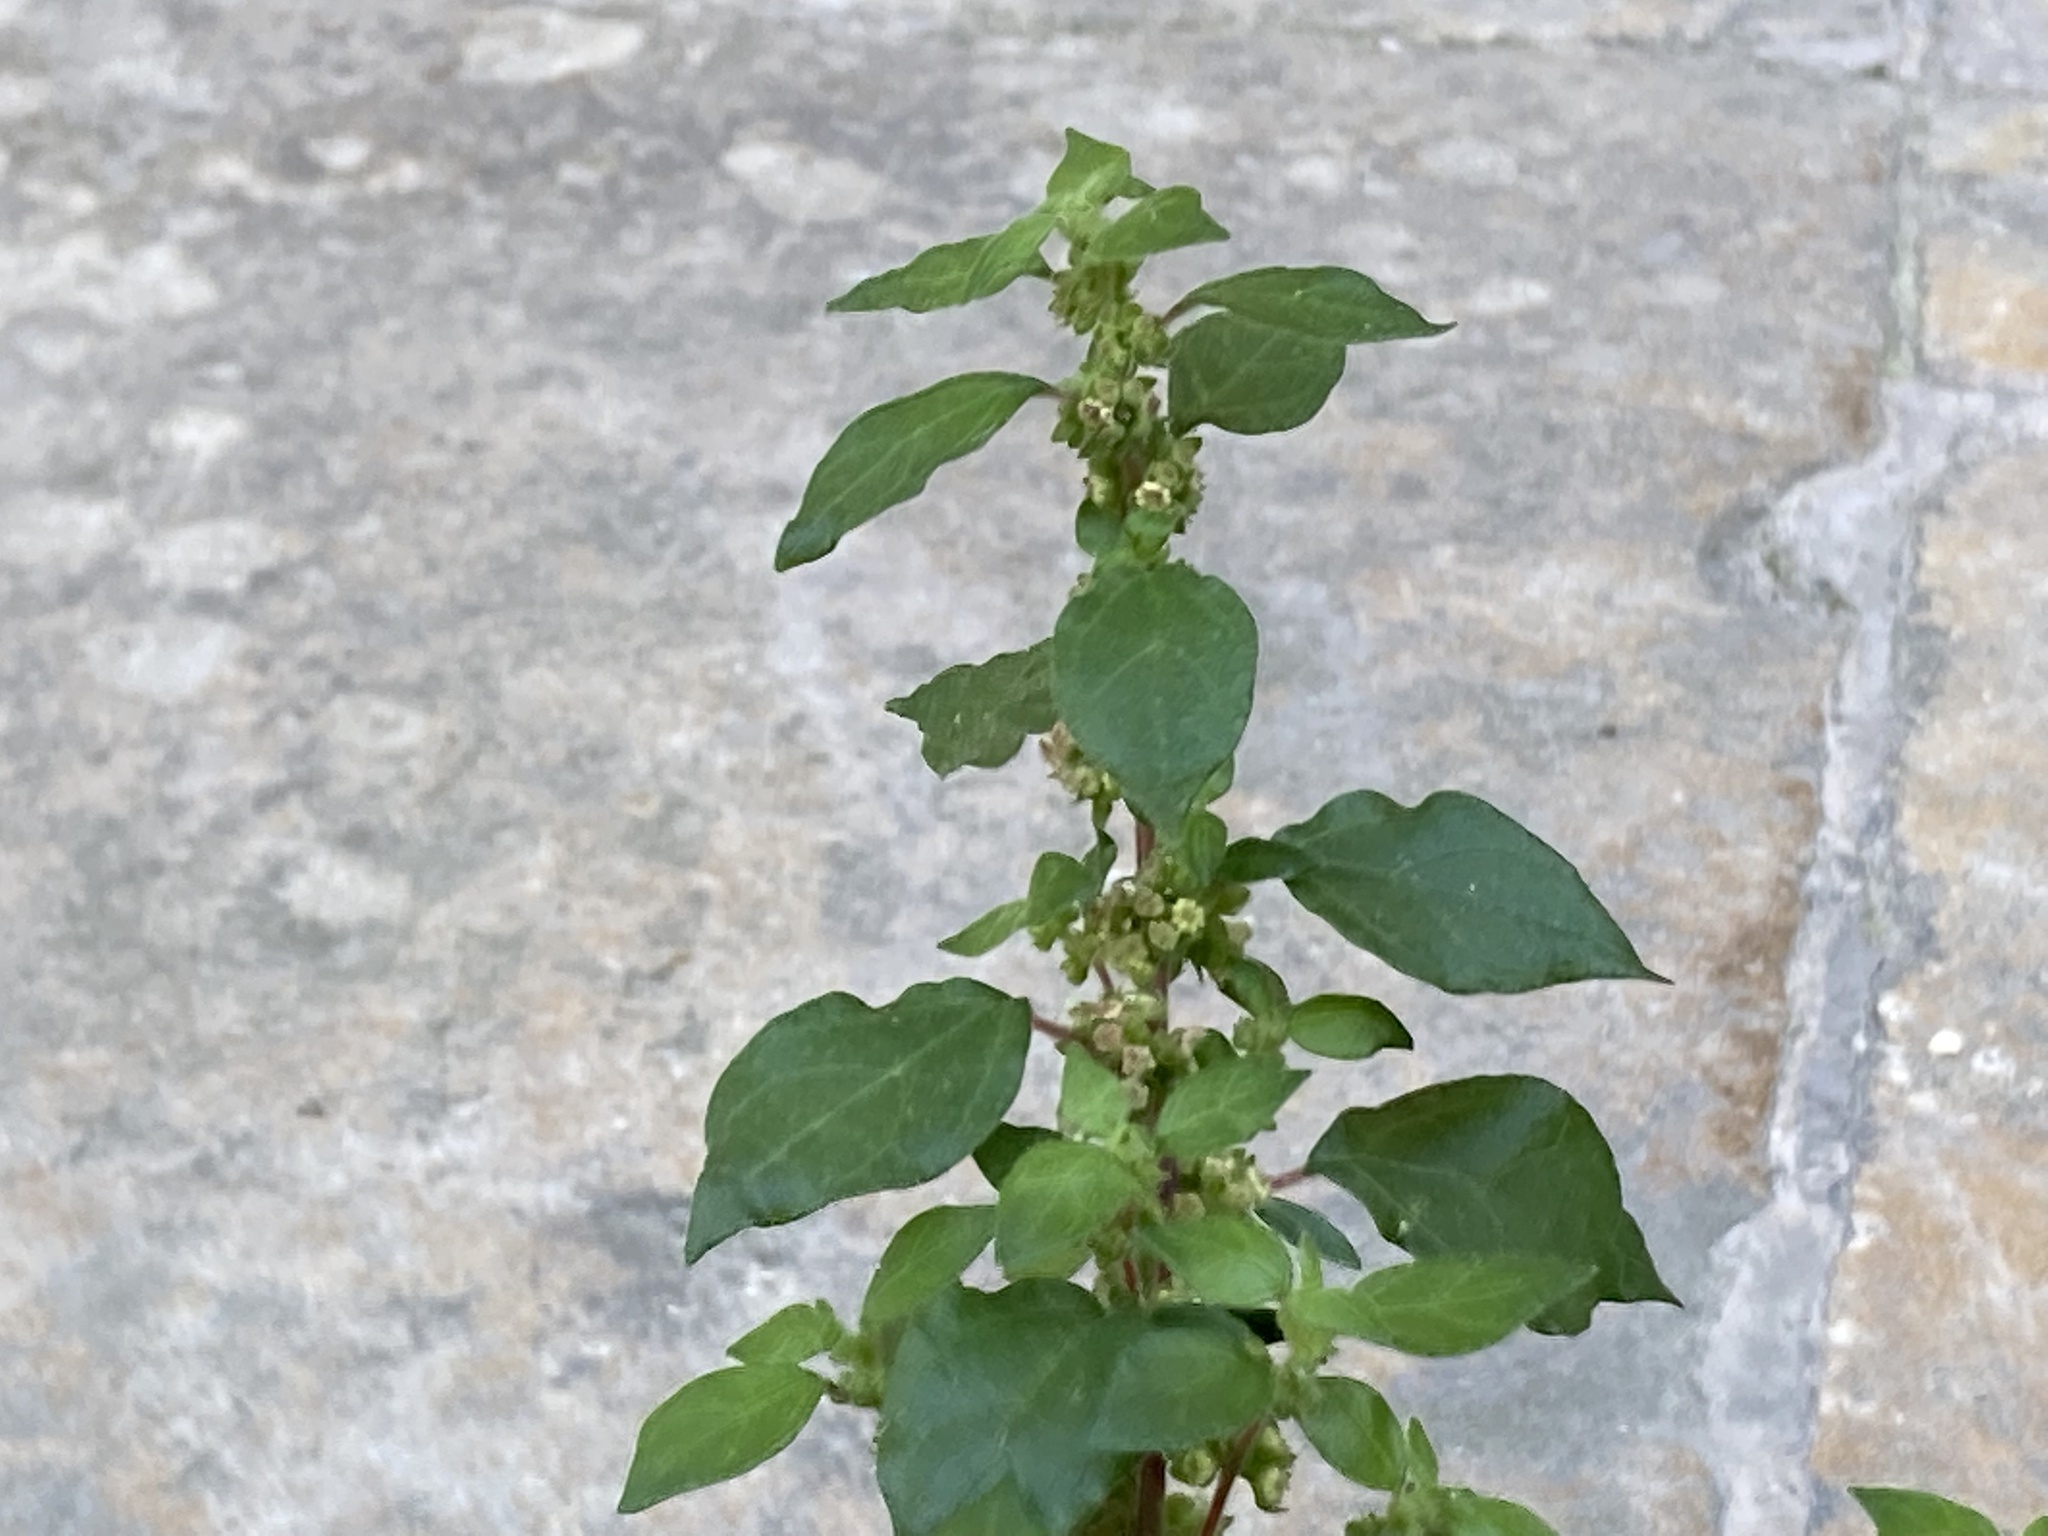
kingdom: Plantae
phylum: Tracheophyta
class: Magnoliopsida
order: Rosales
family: Urticaceae
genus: Parietaria
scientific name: Parietaria judaica
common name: Pellitory-of-the-wall
